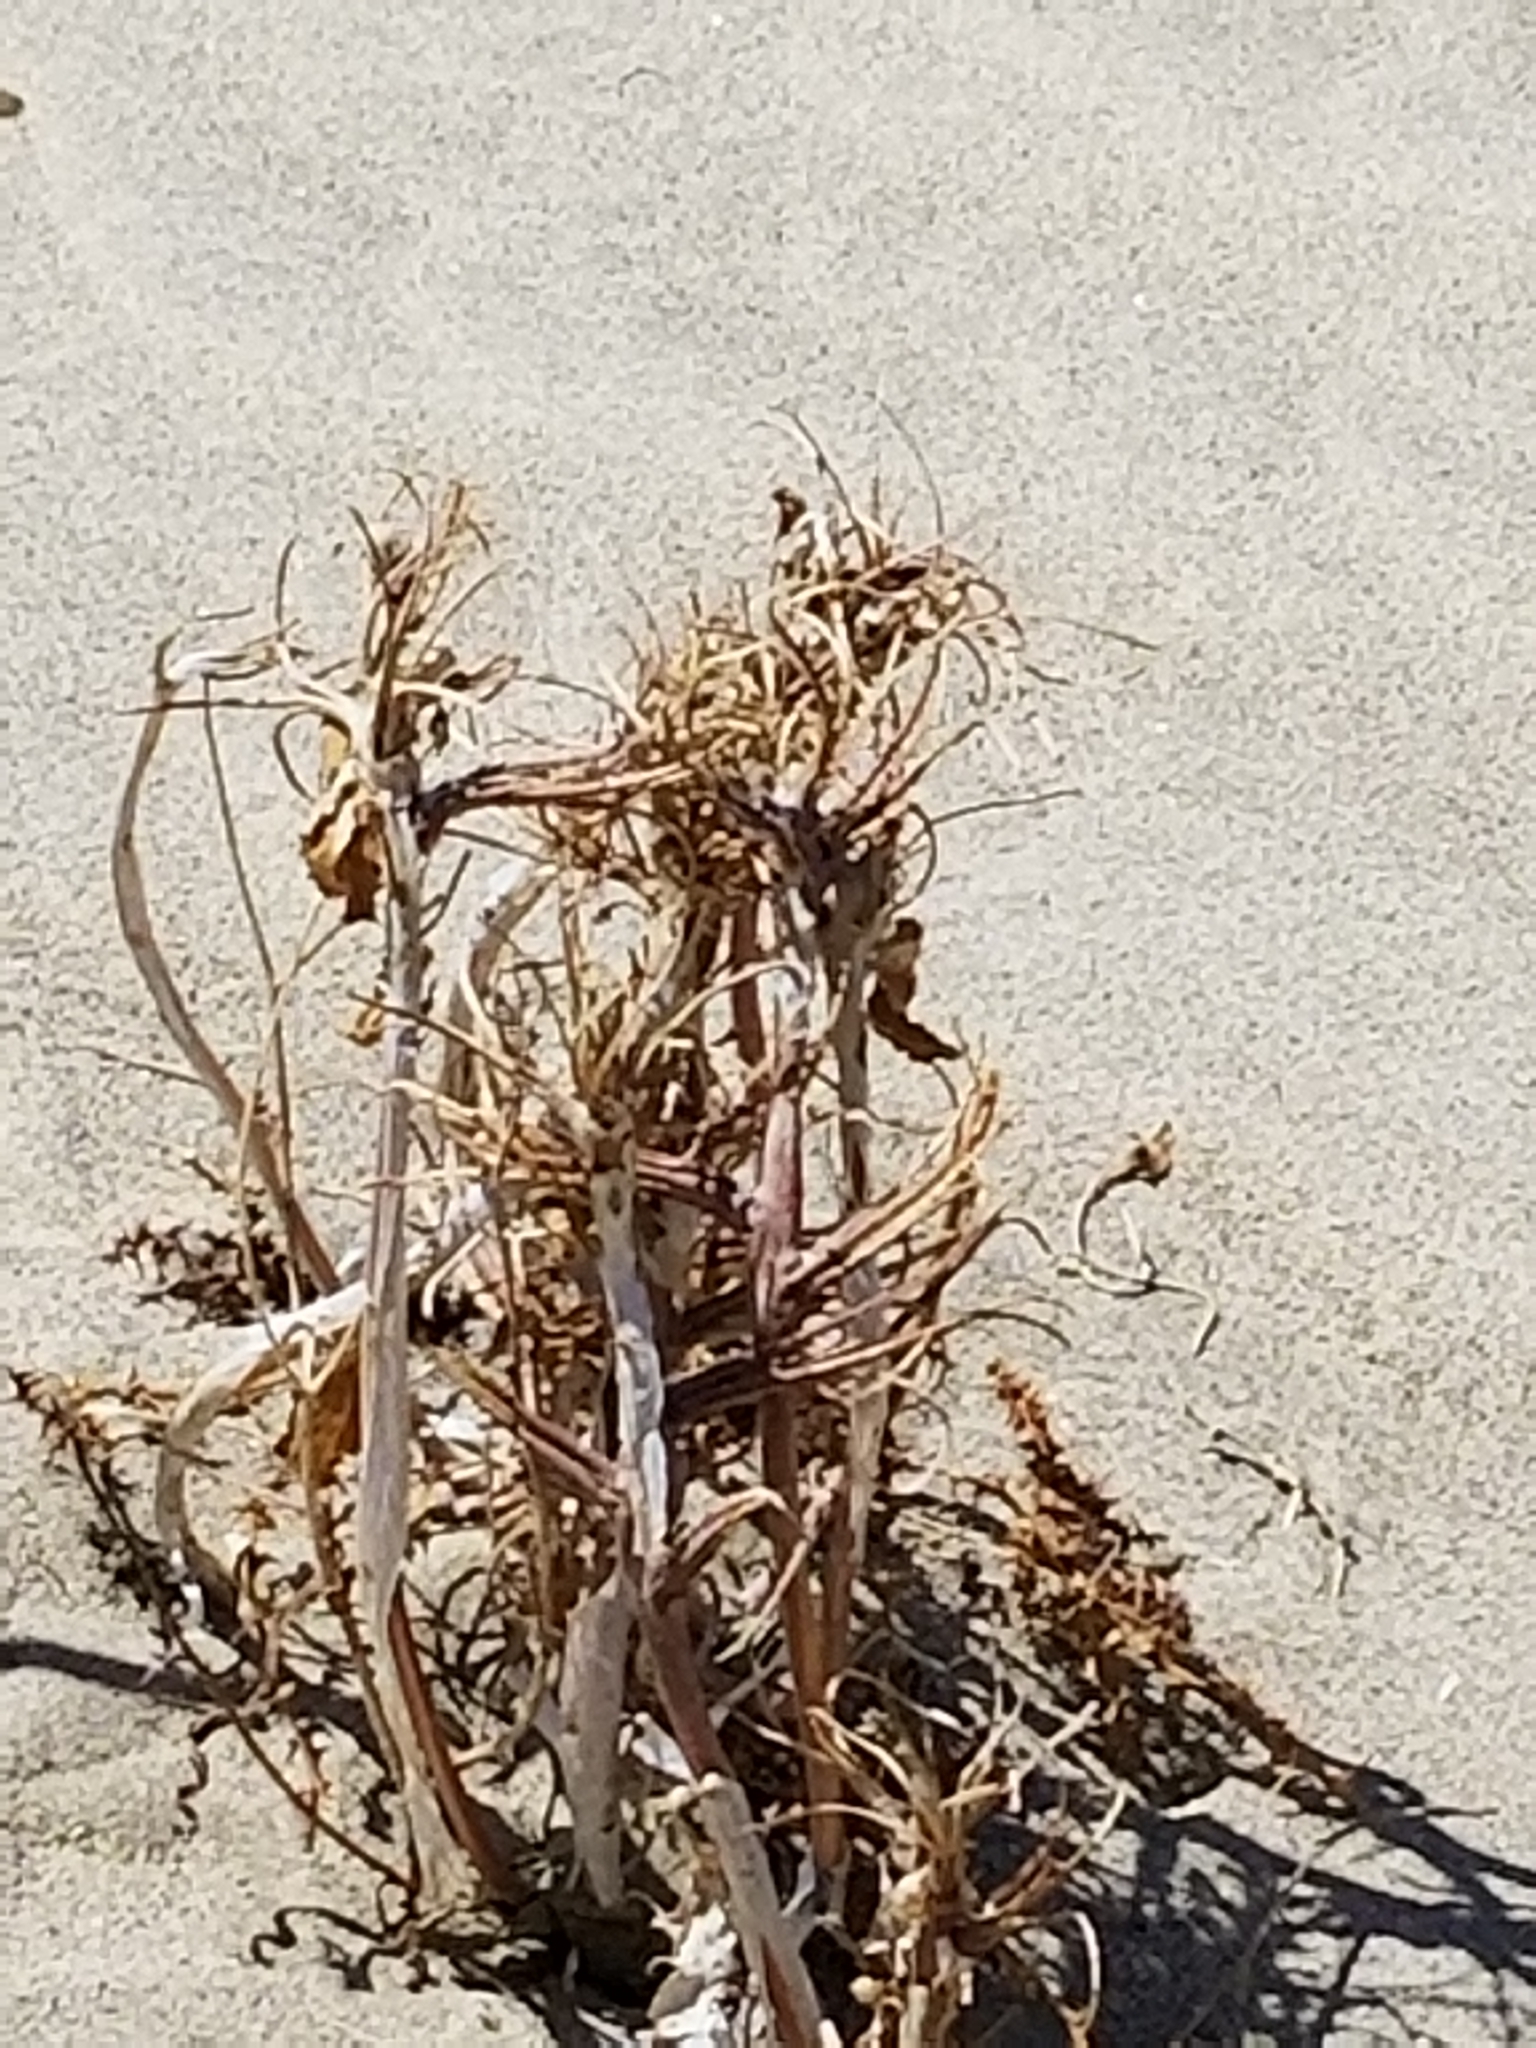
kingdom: Plantae
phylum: Tracheophyta
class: Magnoliopsida
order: Myrtales
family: Onagraceae
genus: Oenothera
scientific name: Oenothera deltoides
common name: Basket evening-primrose
